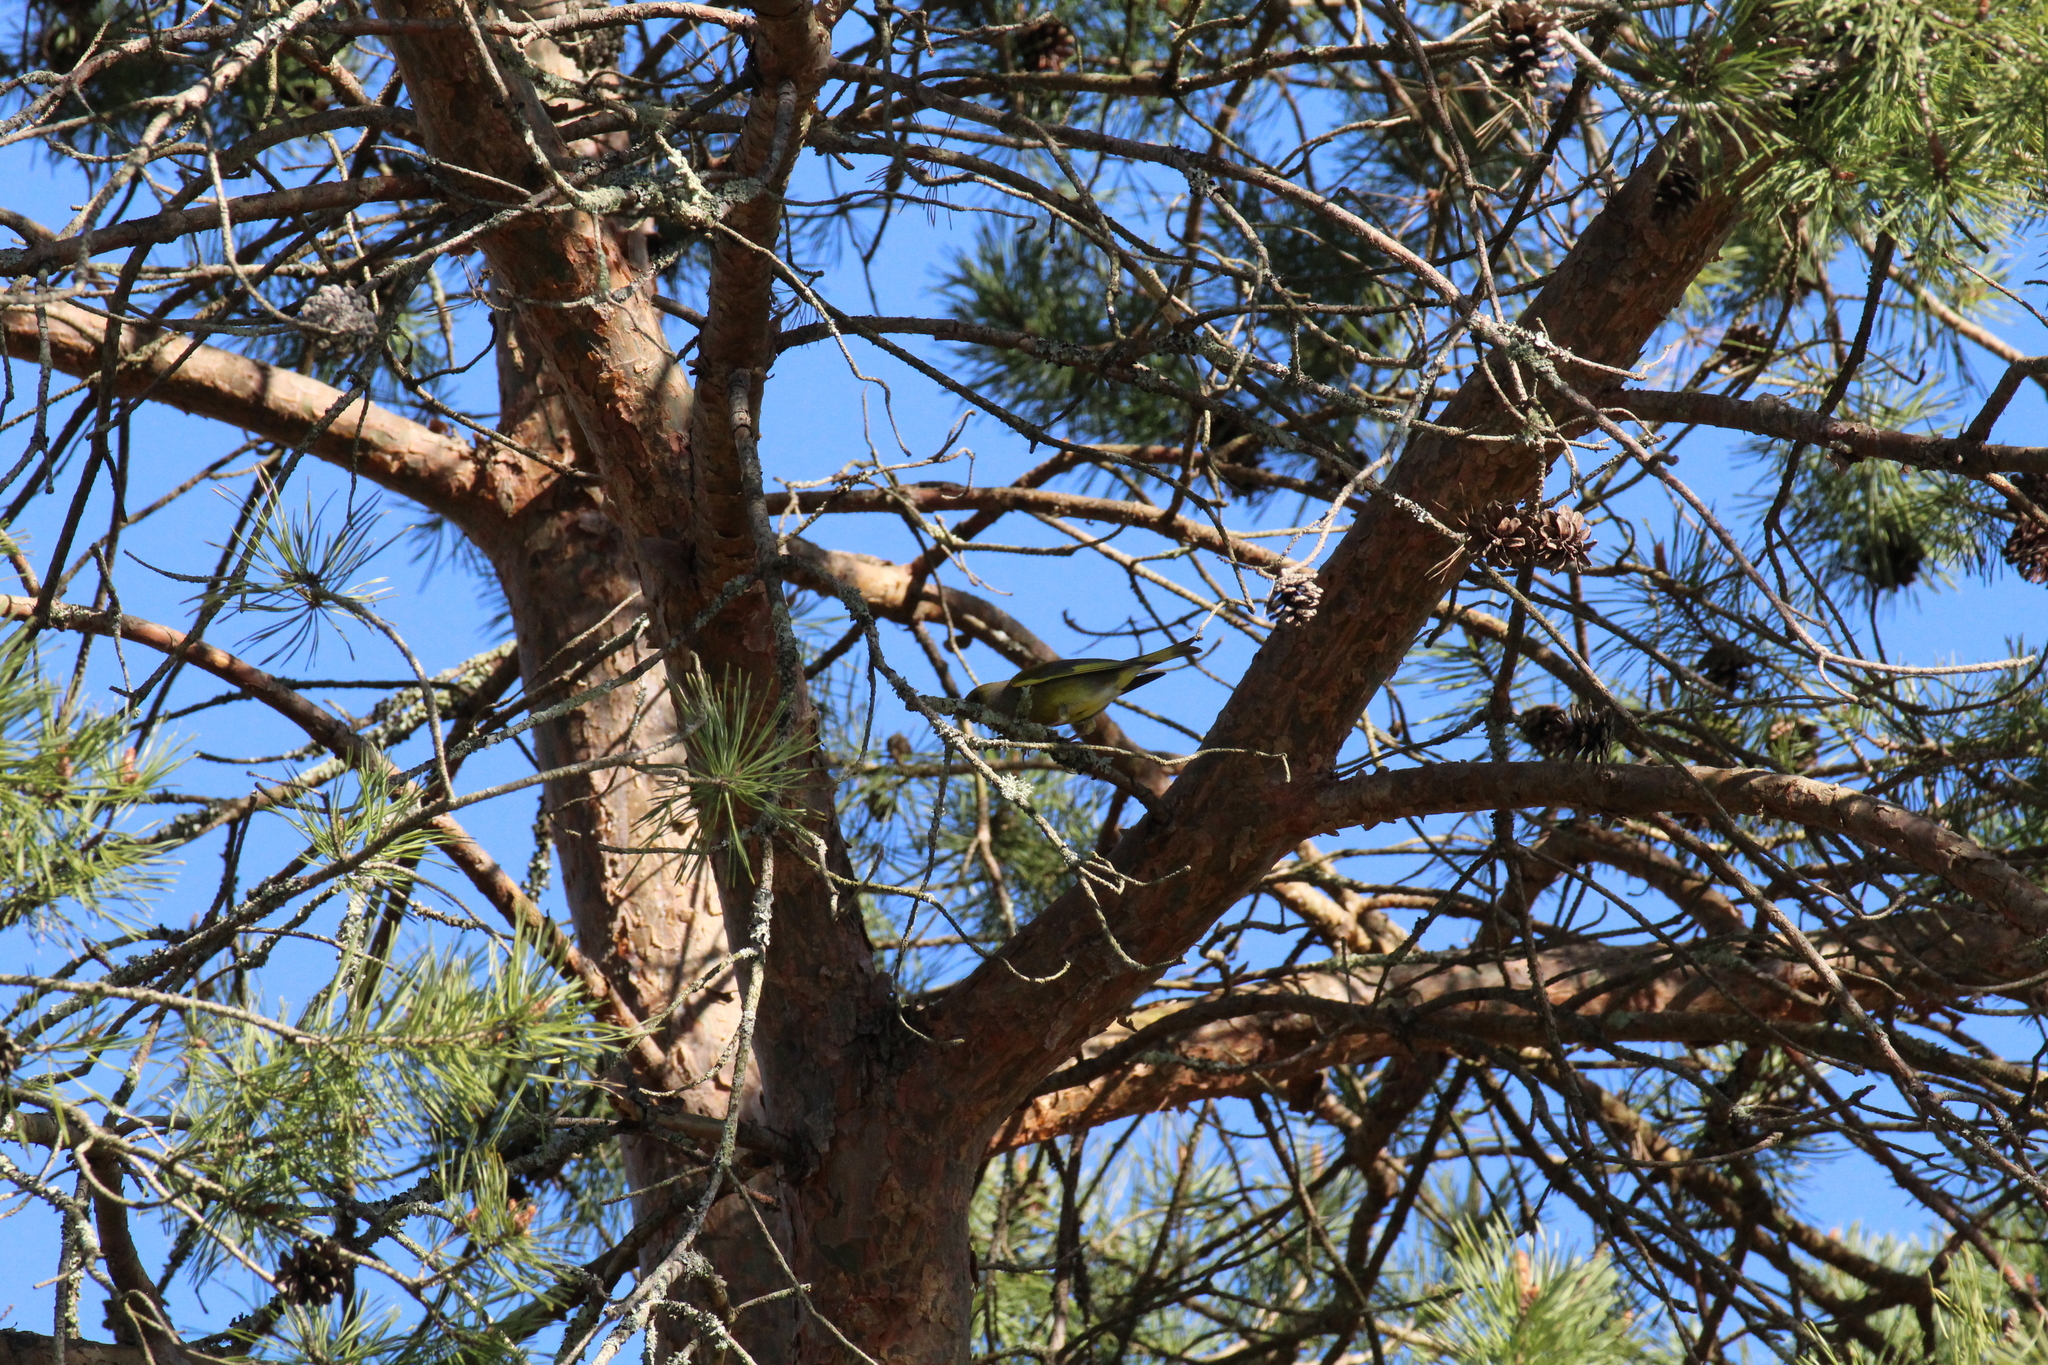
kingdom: Plantae
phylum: Tracheophyta
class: Liliopsida
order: Poales
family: Poaceae
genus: Chloris
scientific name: Chloris chloris
